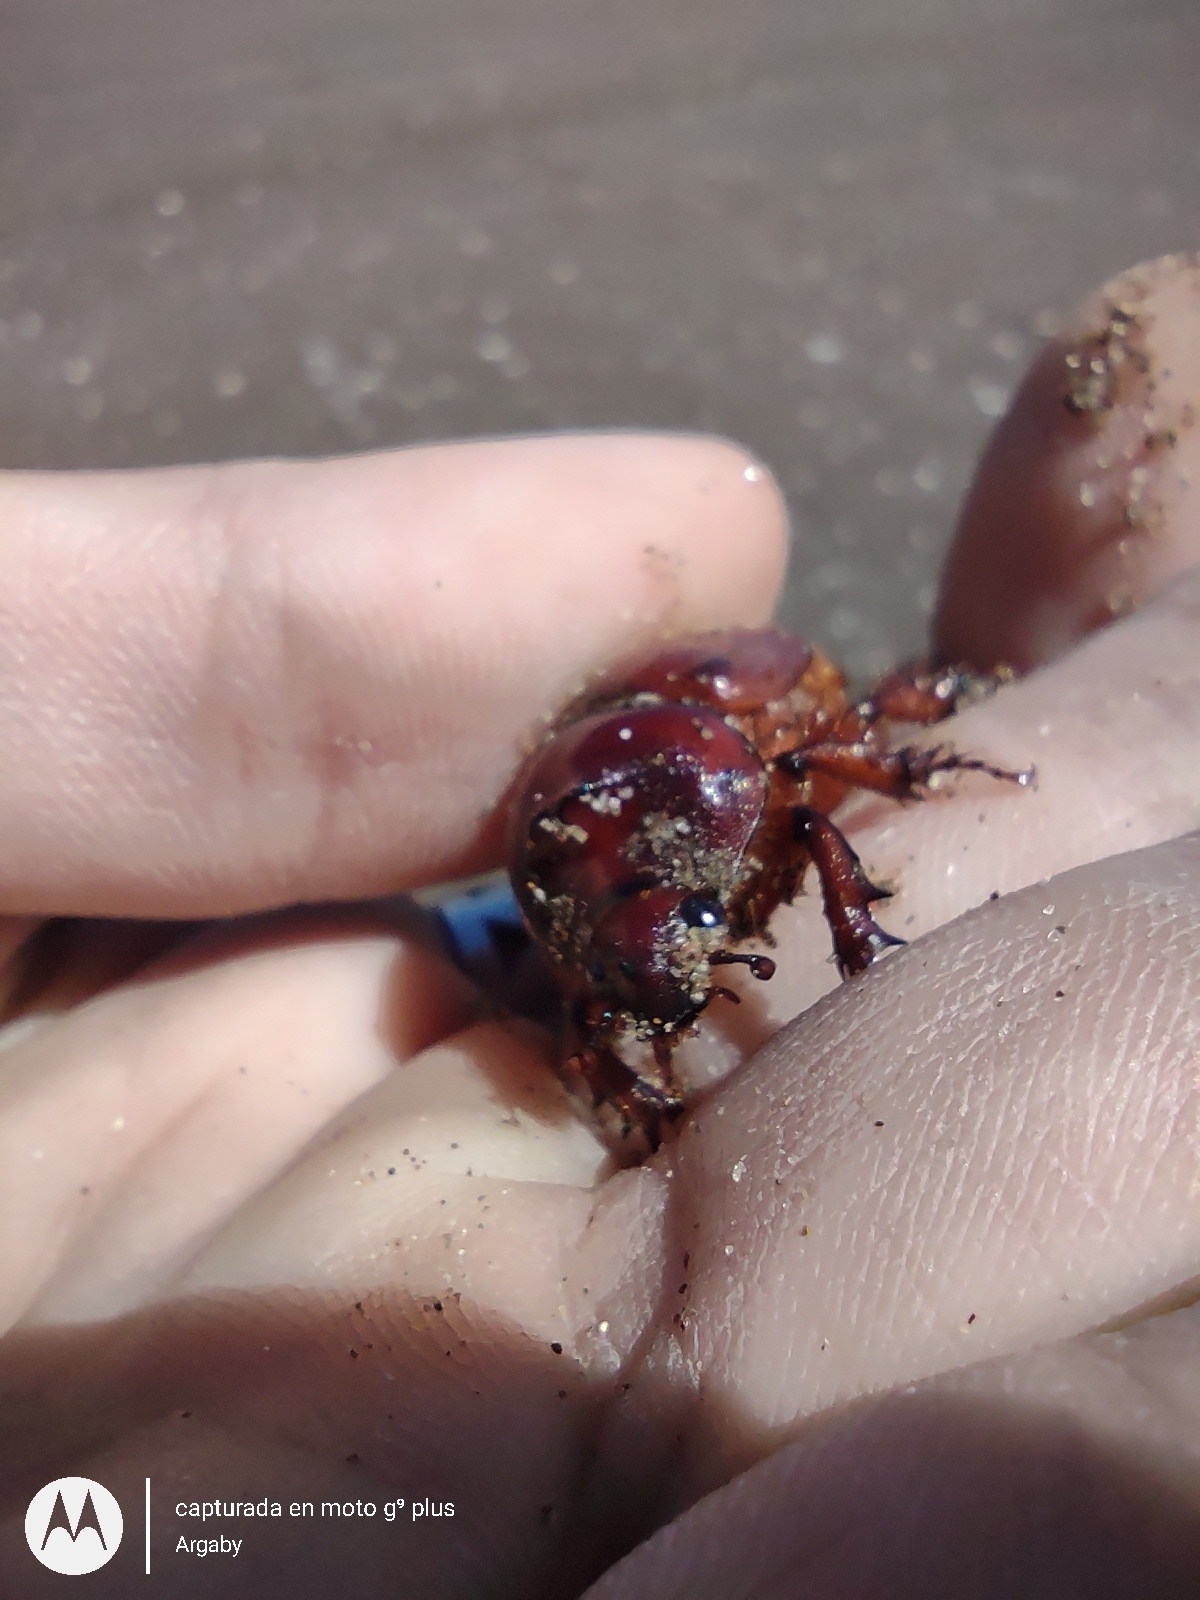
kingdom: Animalia
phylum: Arthropoda
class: Insecta
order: Coleoptera
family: Scarabaeidae
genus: Thronistes
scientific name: Thronistes rouxi
